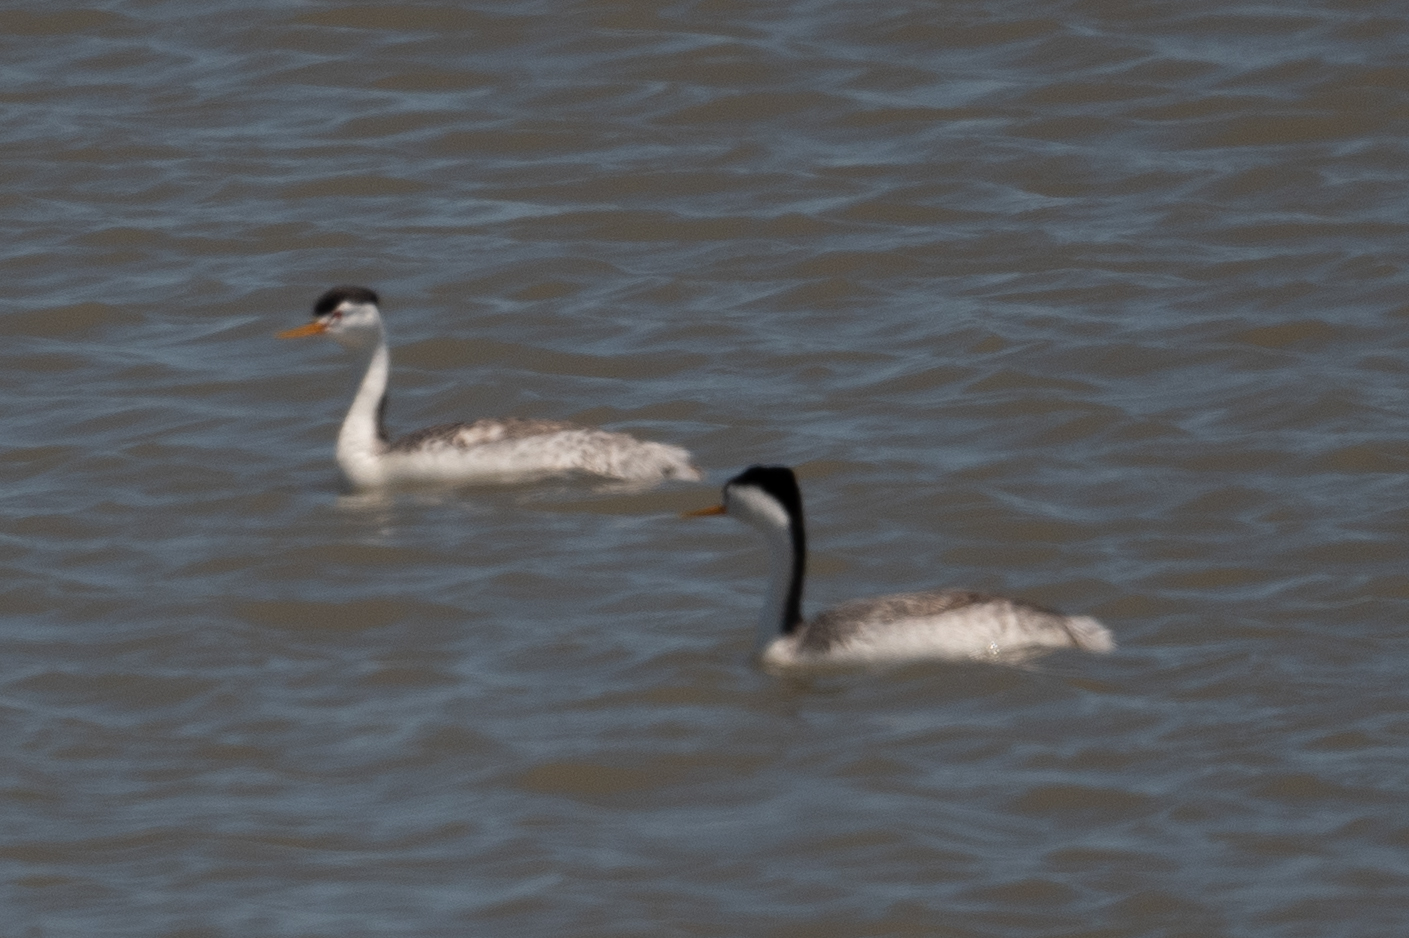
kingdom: Animalia
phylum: Chordata
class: Aves
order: Podicipediformes
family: Podicipedidae
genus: Aechmophorus
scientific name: Aechmophorus clarkii
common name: Clark's grebe
